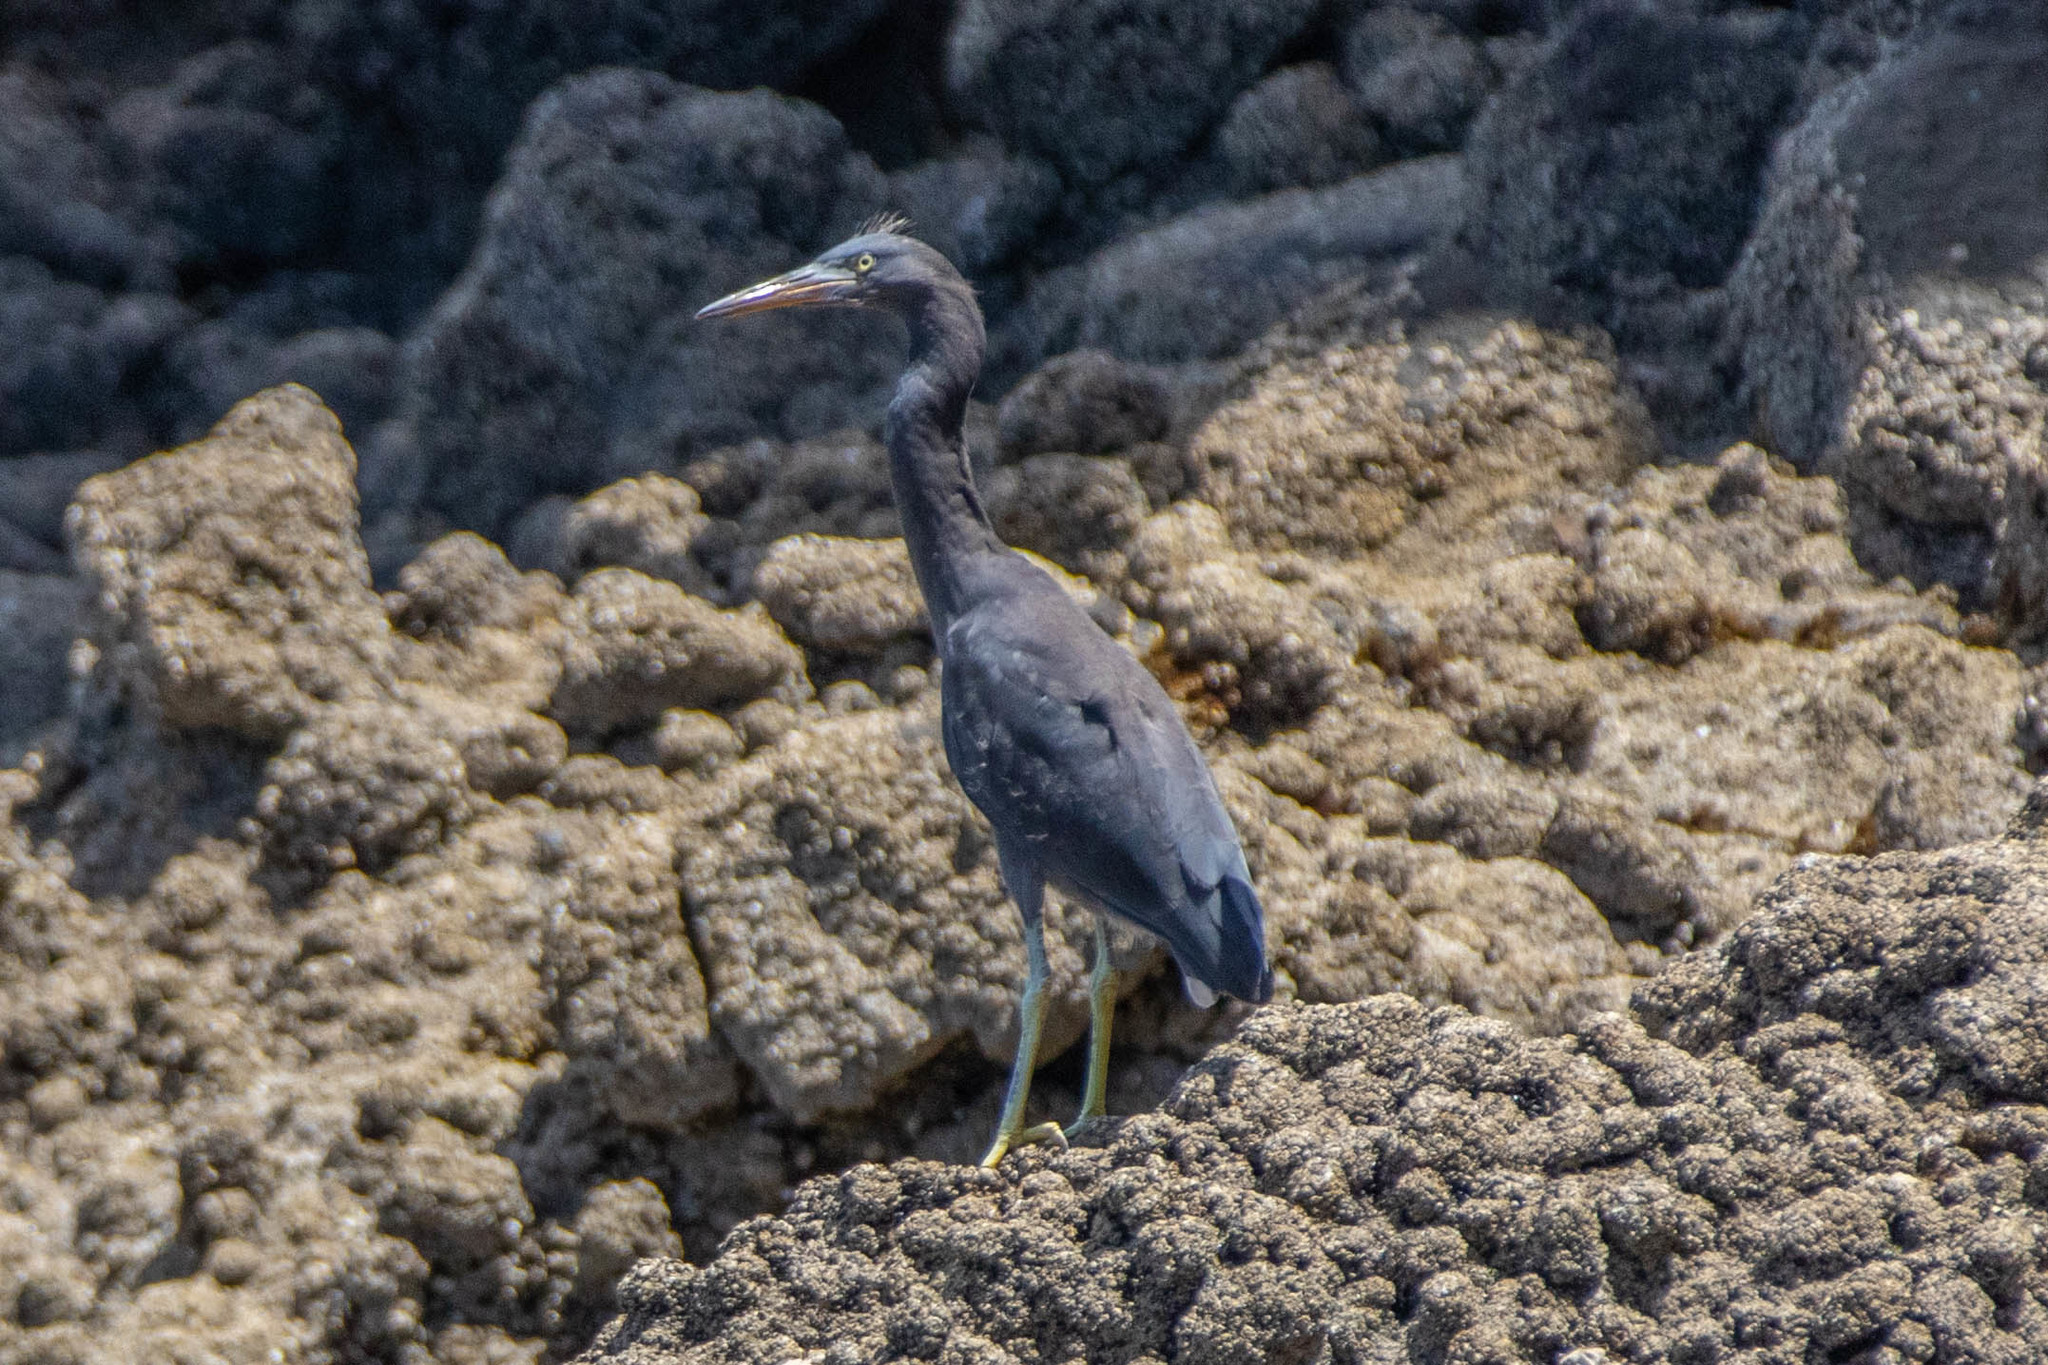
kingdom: Animalia
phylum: Chordata
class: Aves
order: Pelecaniformes
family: Ardeidae
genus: Egretta
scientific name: Egretta sacra
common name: Pacific reef heron
